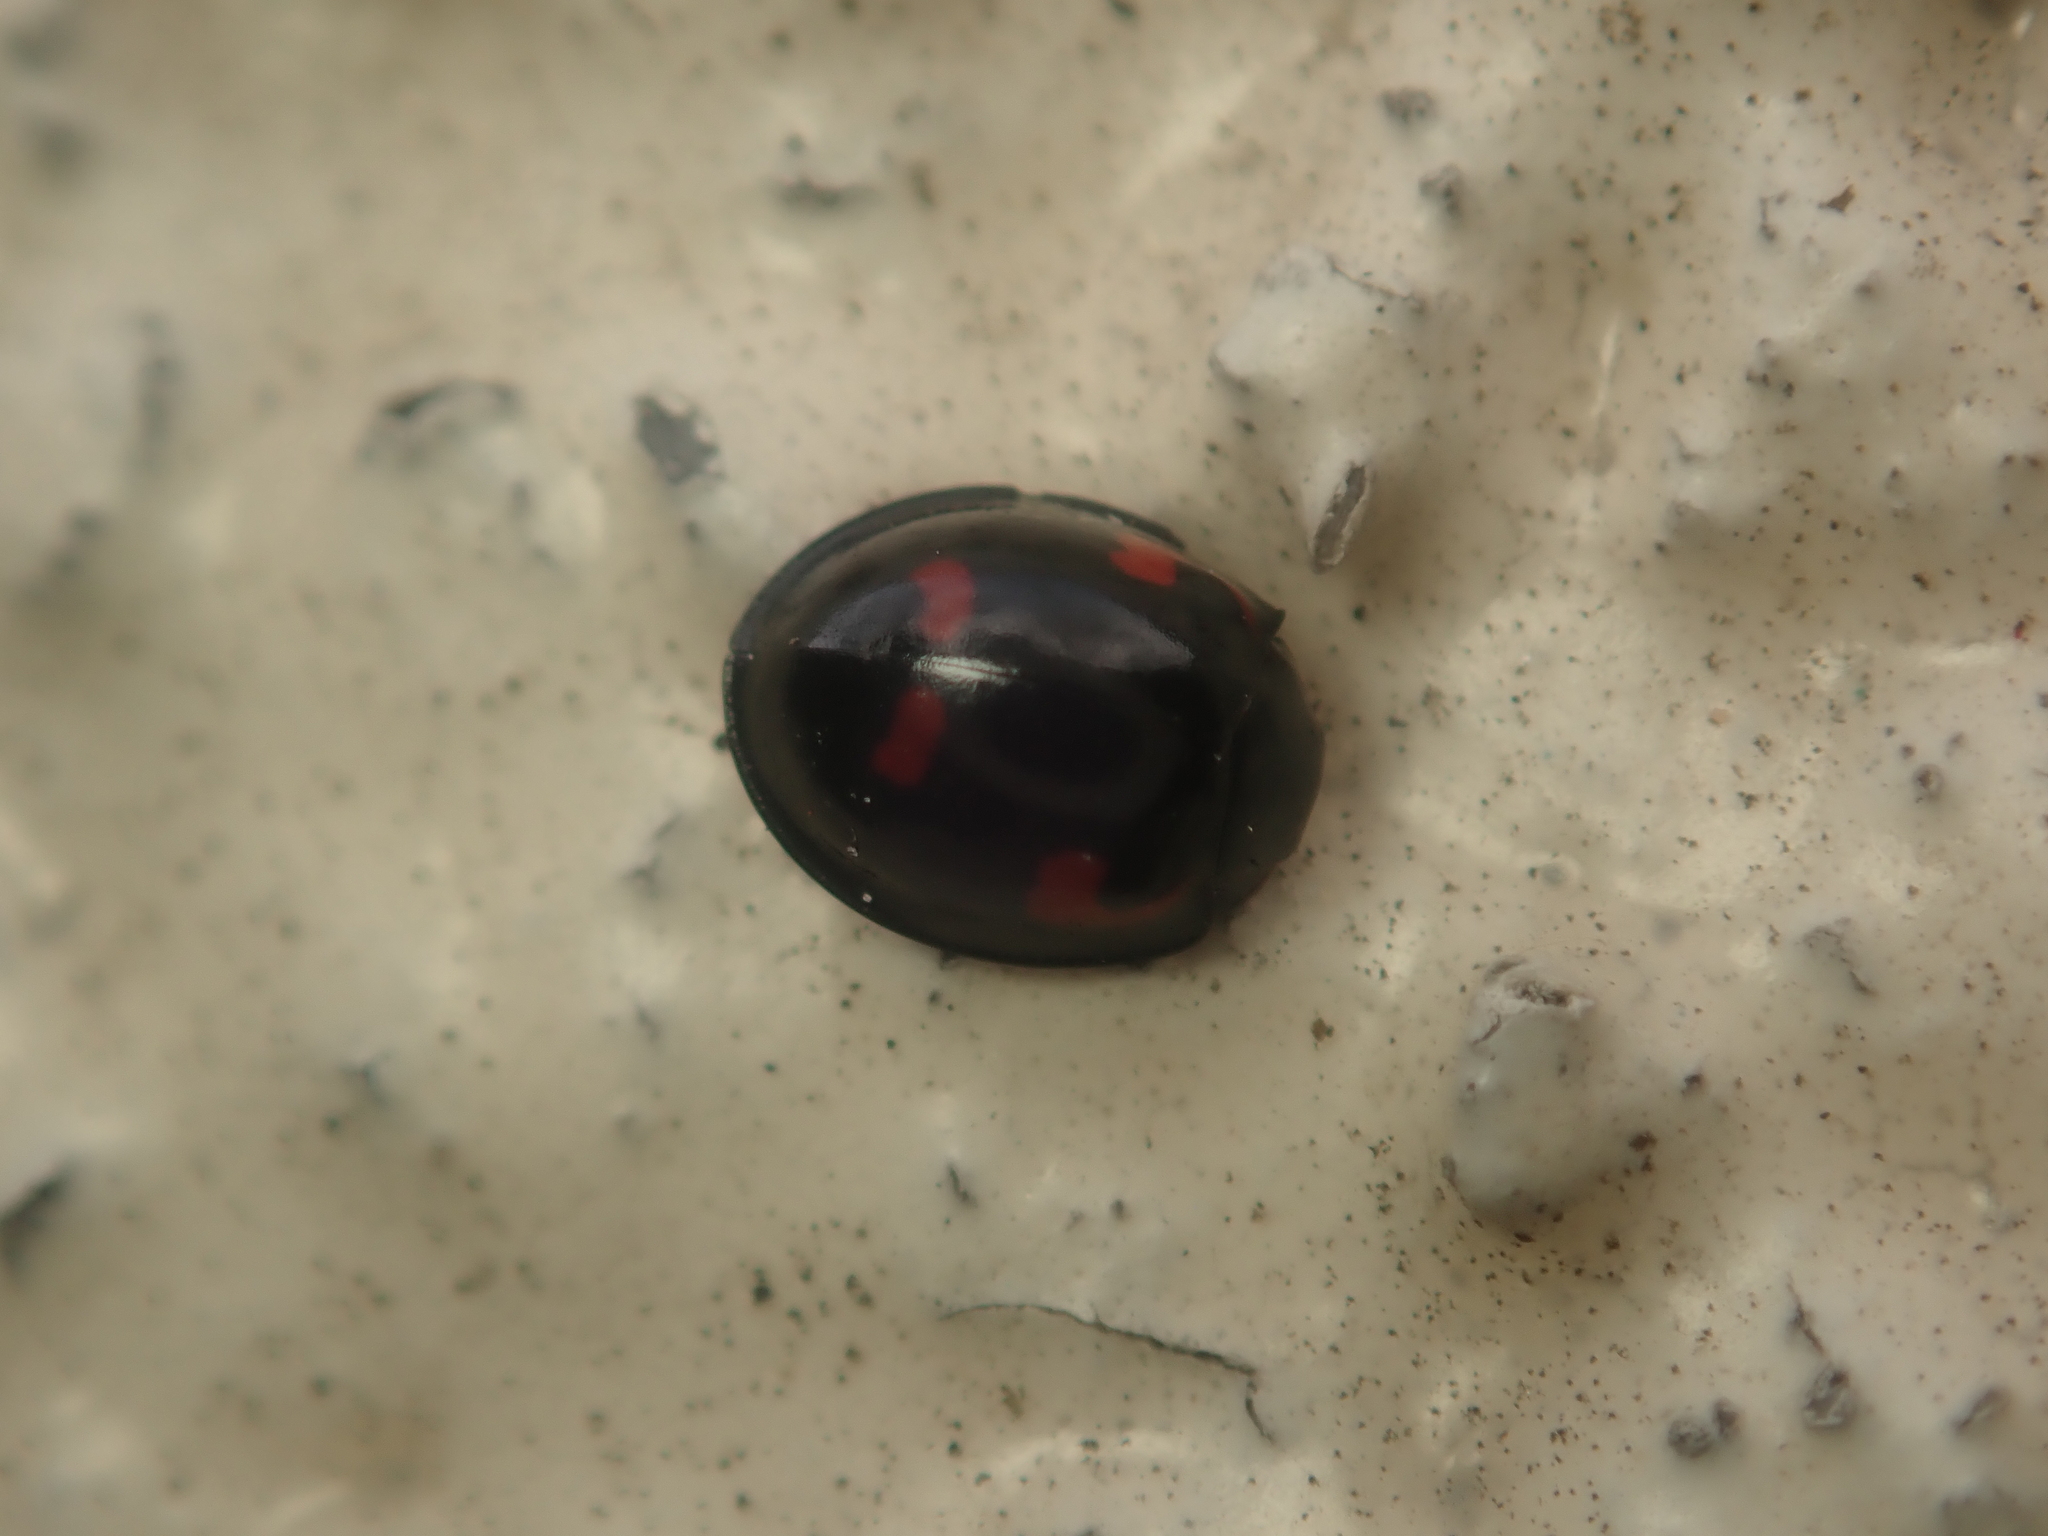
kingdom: Animalia
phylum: Arthropoda
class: Insecta
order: Coleoptera
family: Coccinellidae
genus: Brumus
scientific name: Brumus quadripustulatus
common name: Ladybird beetle
